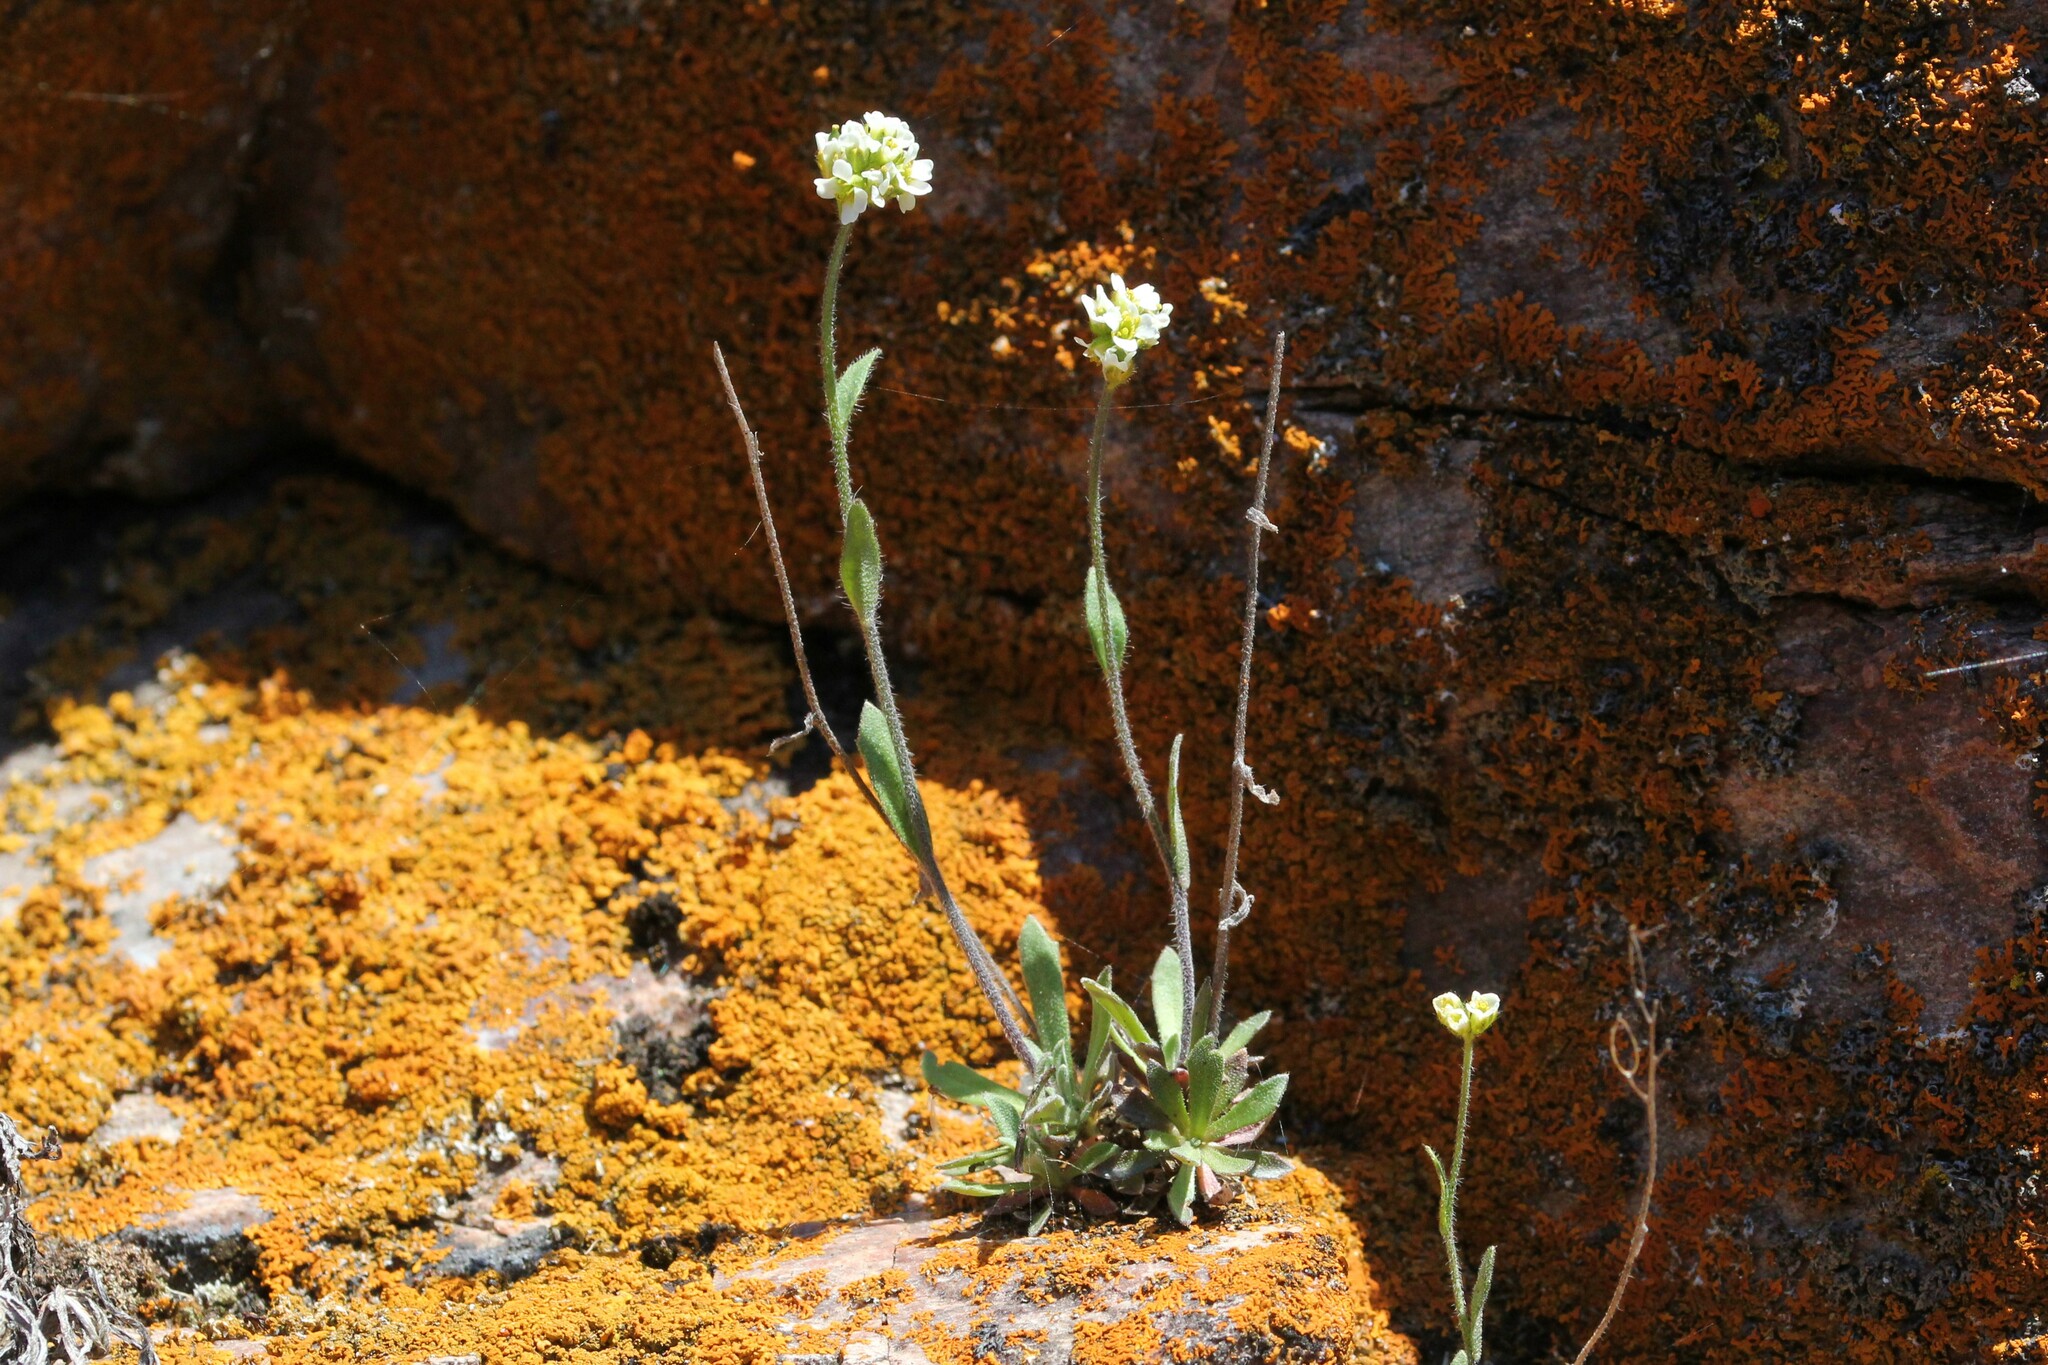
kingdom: Plantae
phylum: Tracheophyta
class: Magnoliopsida
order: Brassicales
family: Brassicaceae
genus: Draba
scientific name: Draba glabella
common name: Glaucous draba
